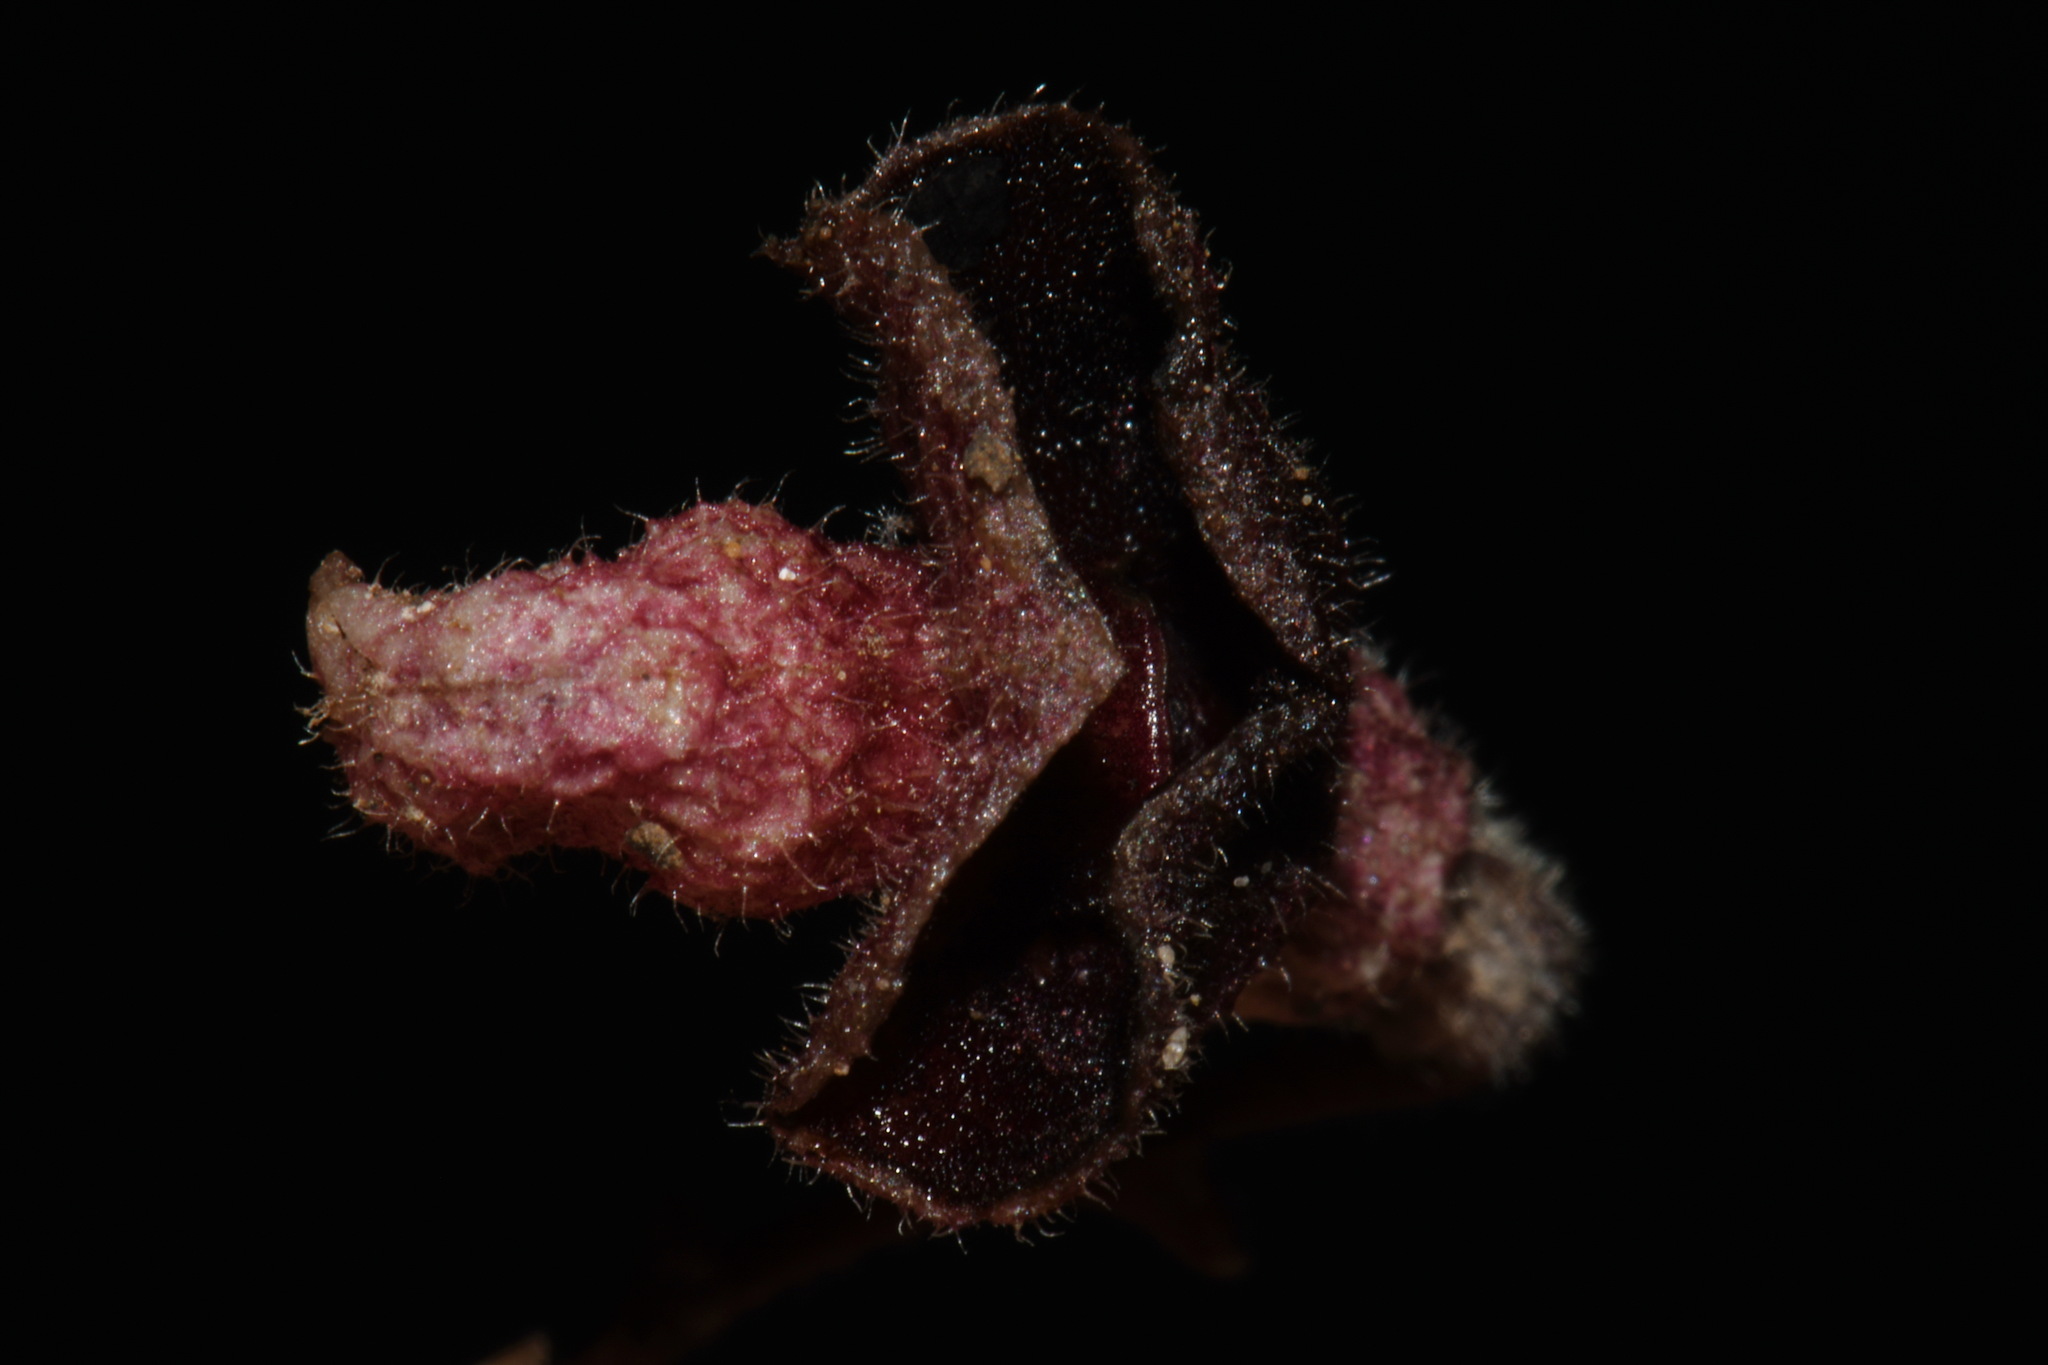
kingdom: Plantae
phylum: Tracheophyta
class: Magnoliopsida
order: Piperales
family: Aristolochiaceae
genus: Endodeca
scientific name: Endodeca serpentaria
